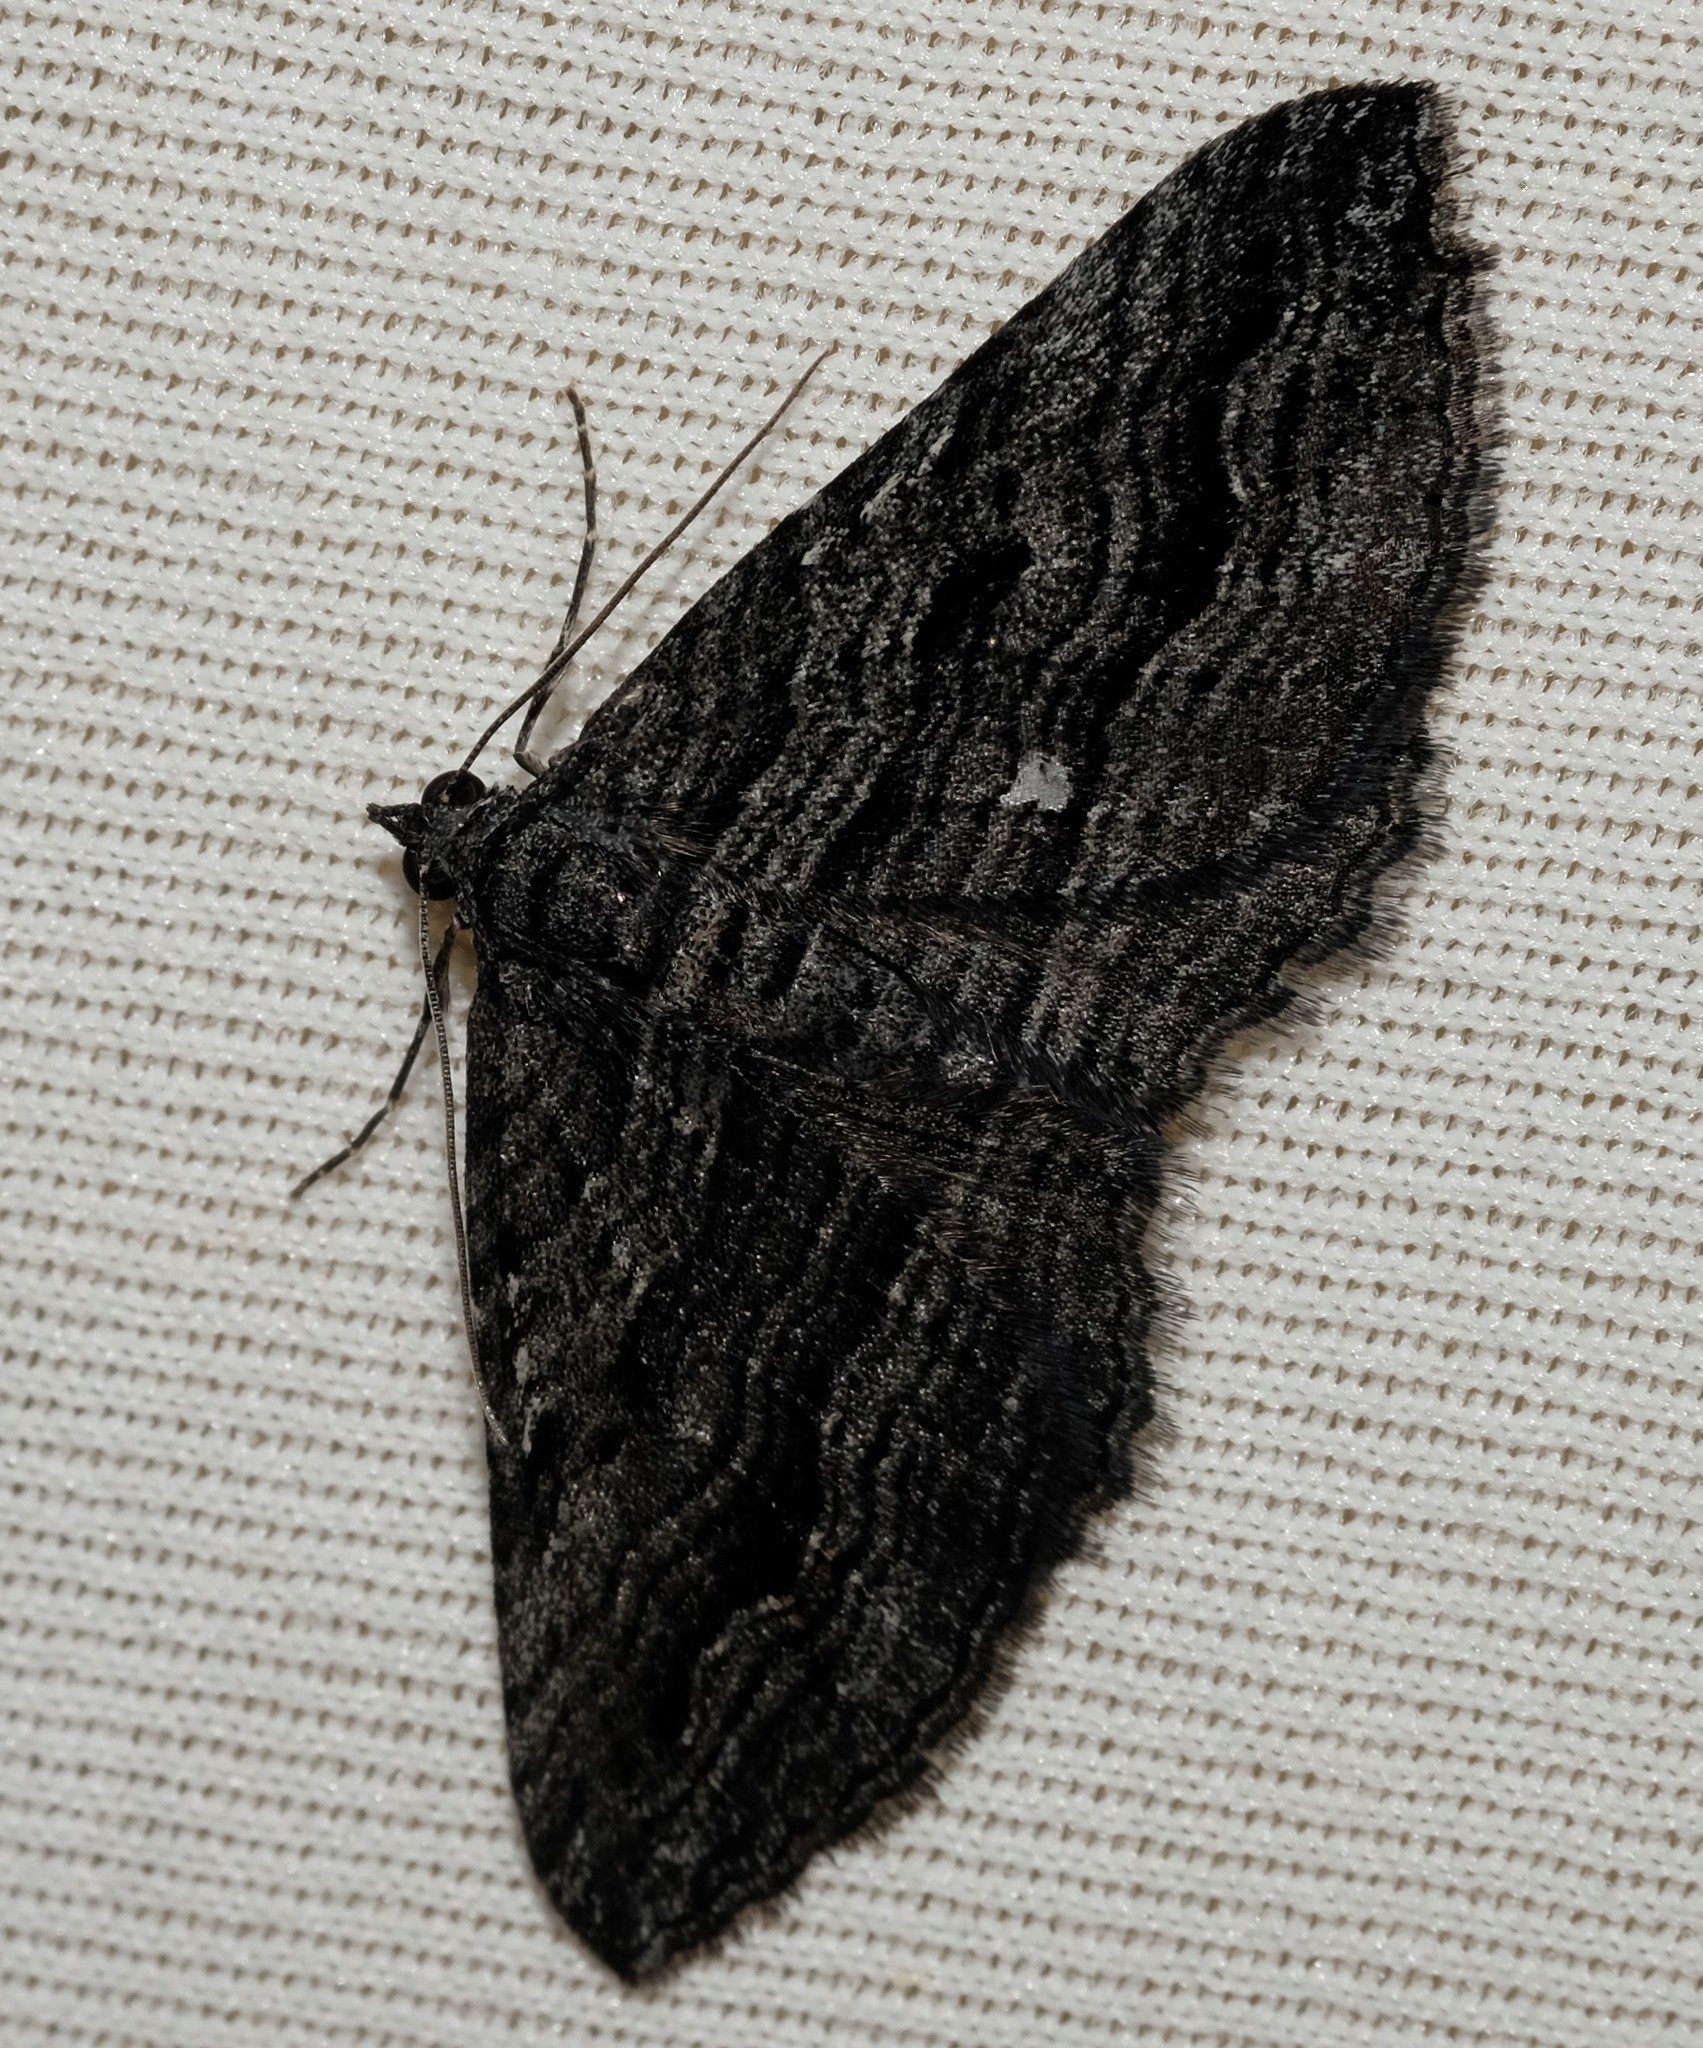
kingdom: Animalia
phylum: Arthropoda
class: Insecta
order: Lepidoptera
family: Geometridae
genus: Chrysolarentia
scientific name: Chrysolarentia severata
